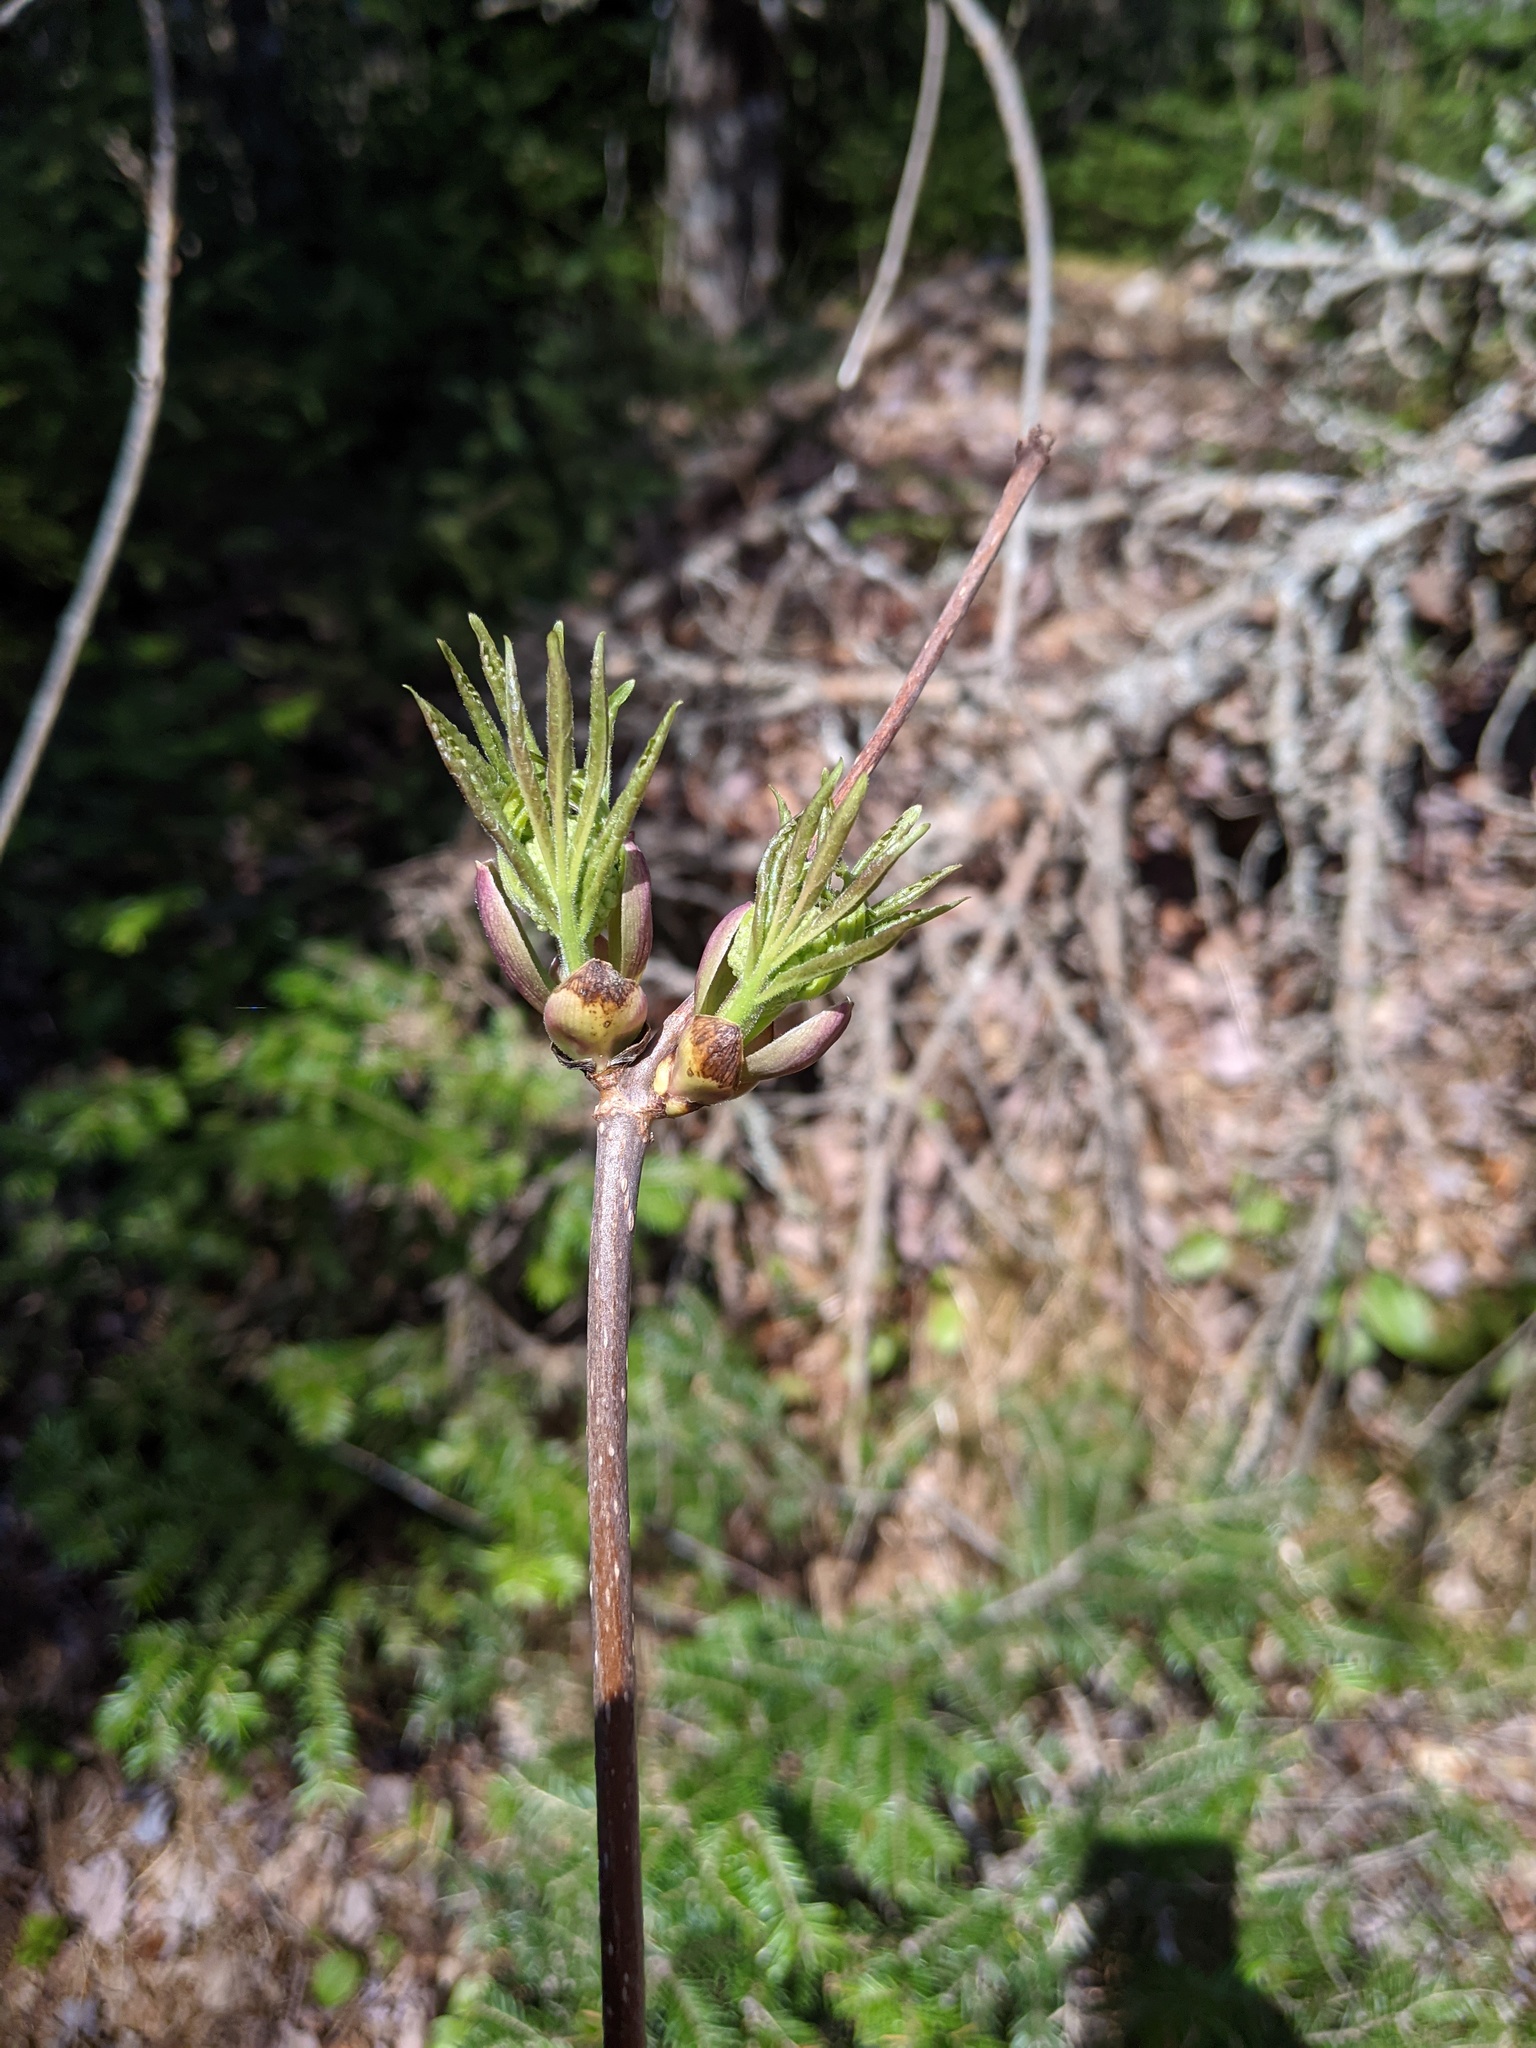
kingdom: Plantae
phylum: Tracheophyta
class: Magnoliopsida
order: Dipsacales
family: Viburnaceae
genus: Sambucus
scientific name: Sambucus racemosa
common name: Red-berried elder
